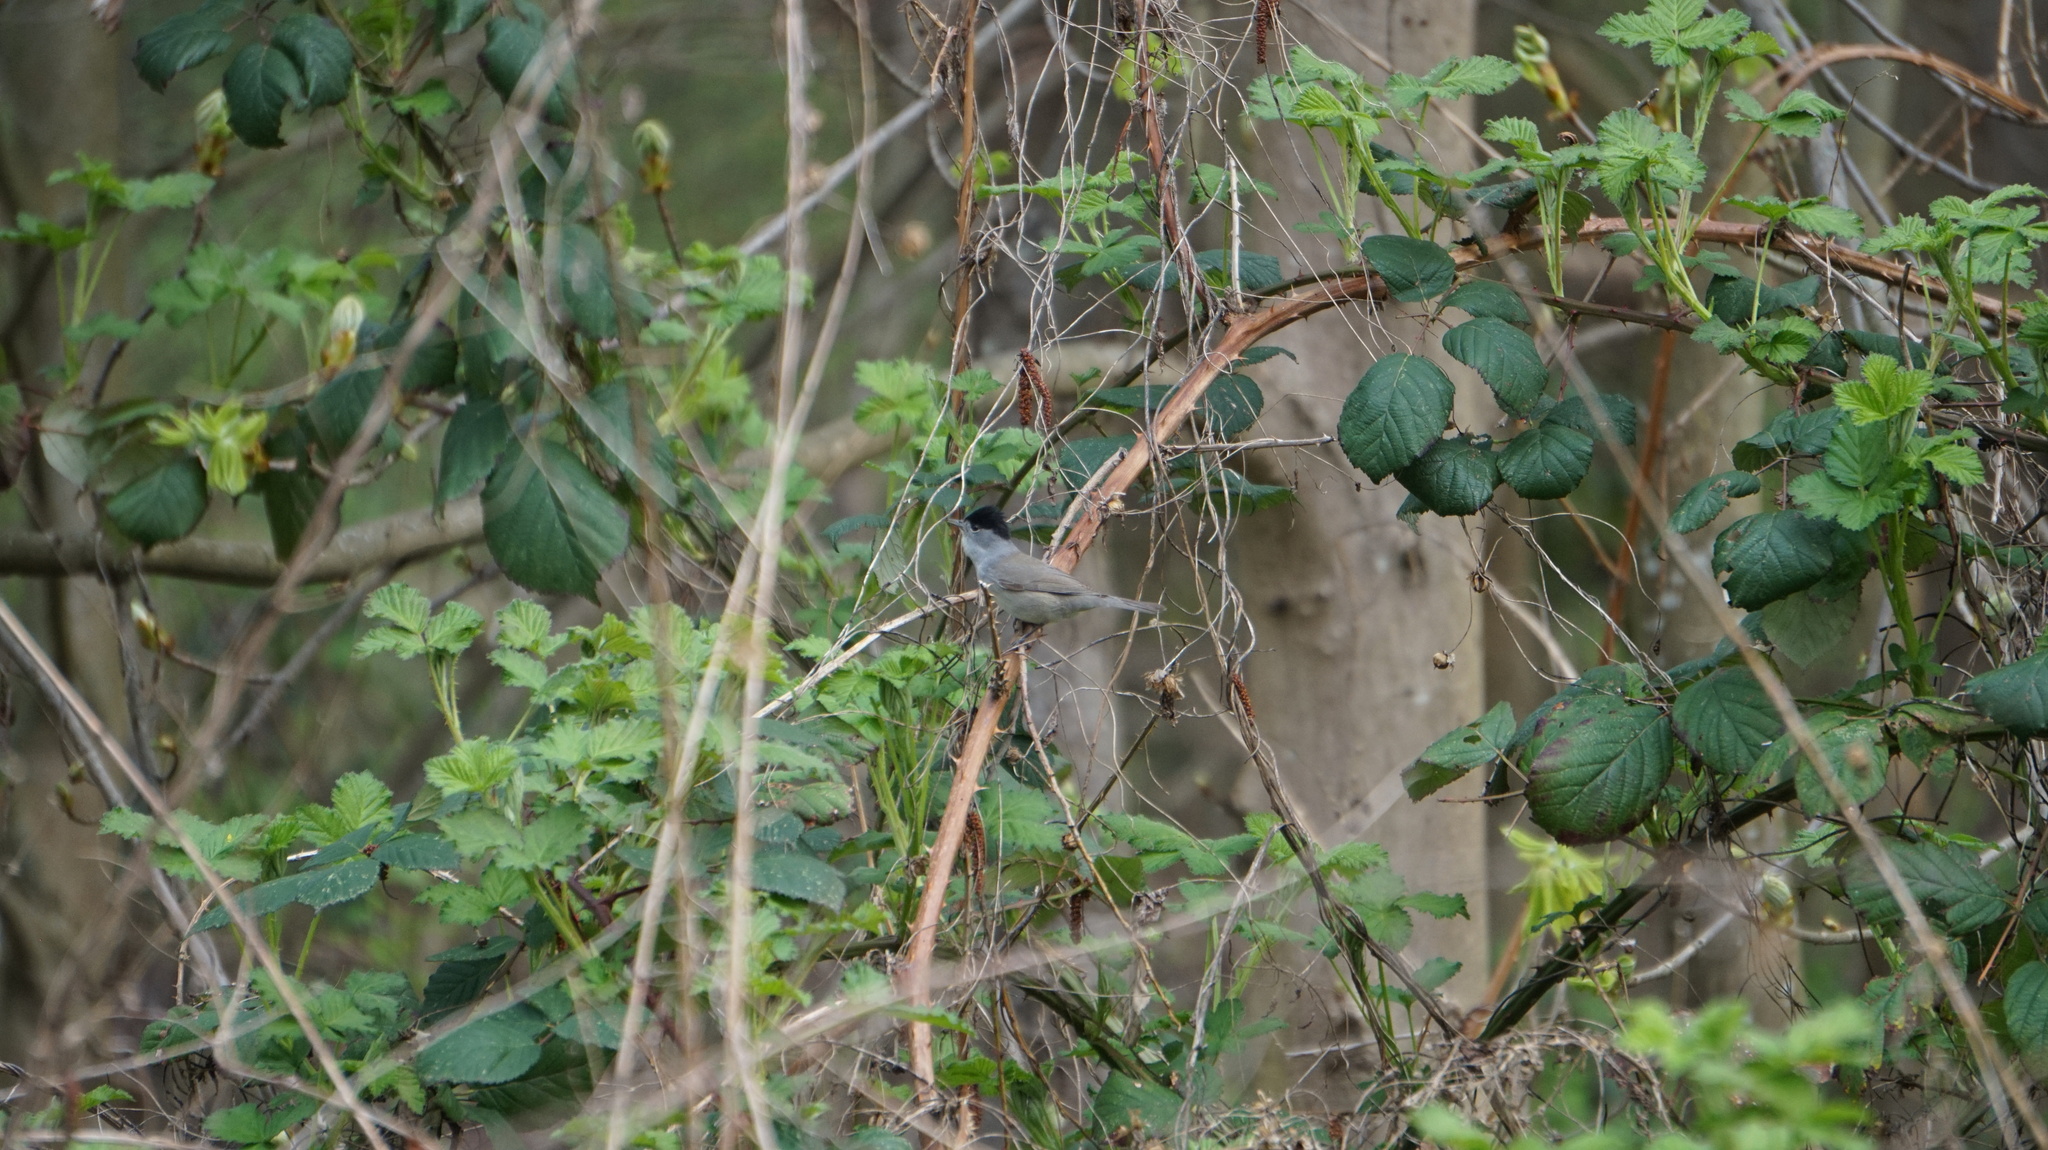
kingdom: Animalia
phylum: Chordata
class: Aves
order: Passeriformes
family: Sylviidae
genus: Sylvia
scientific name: Sylvia atricapilla
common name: Eurasian blackcap
